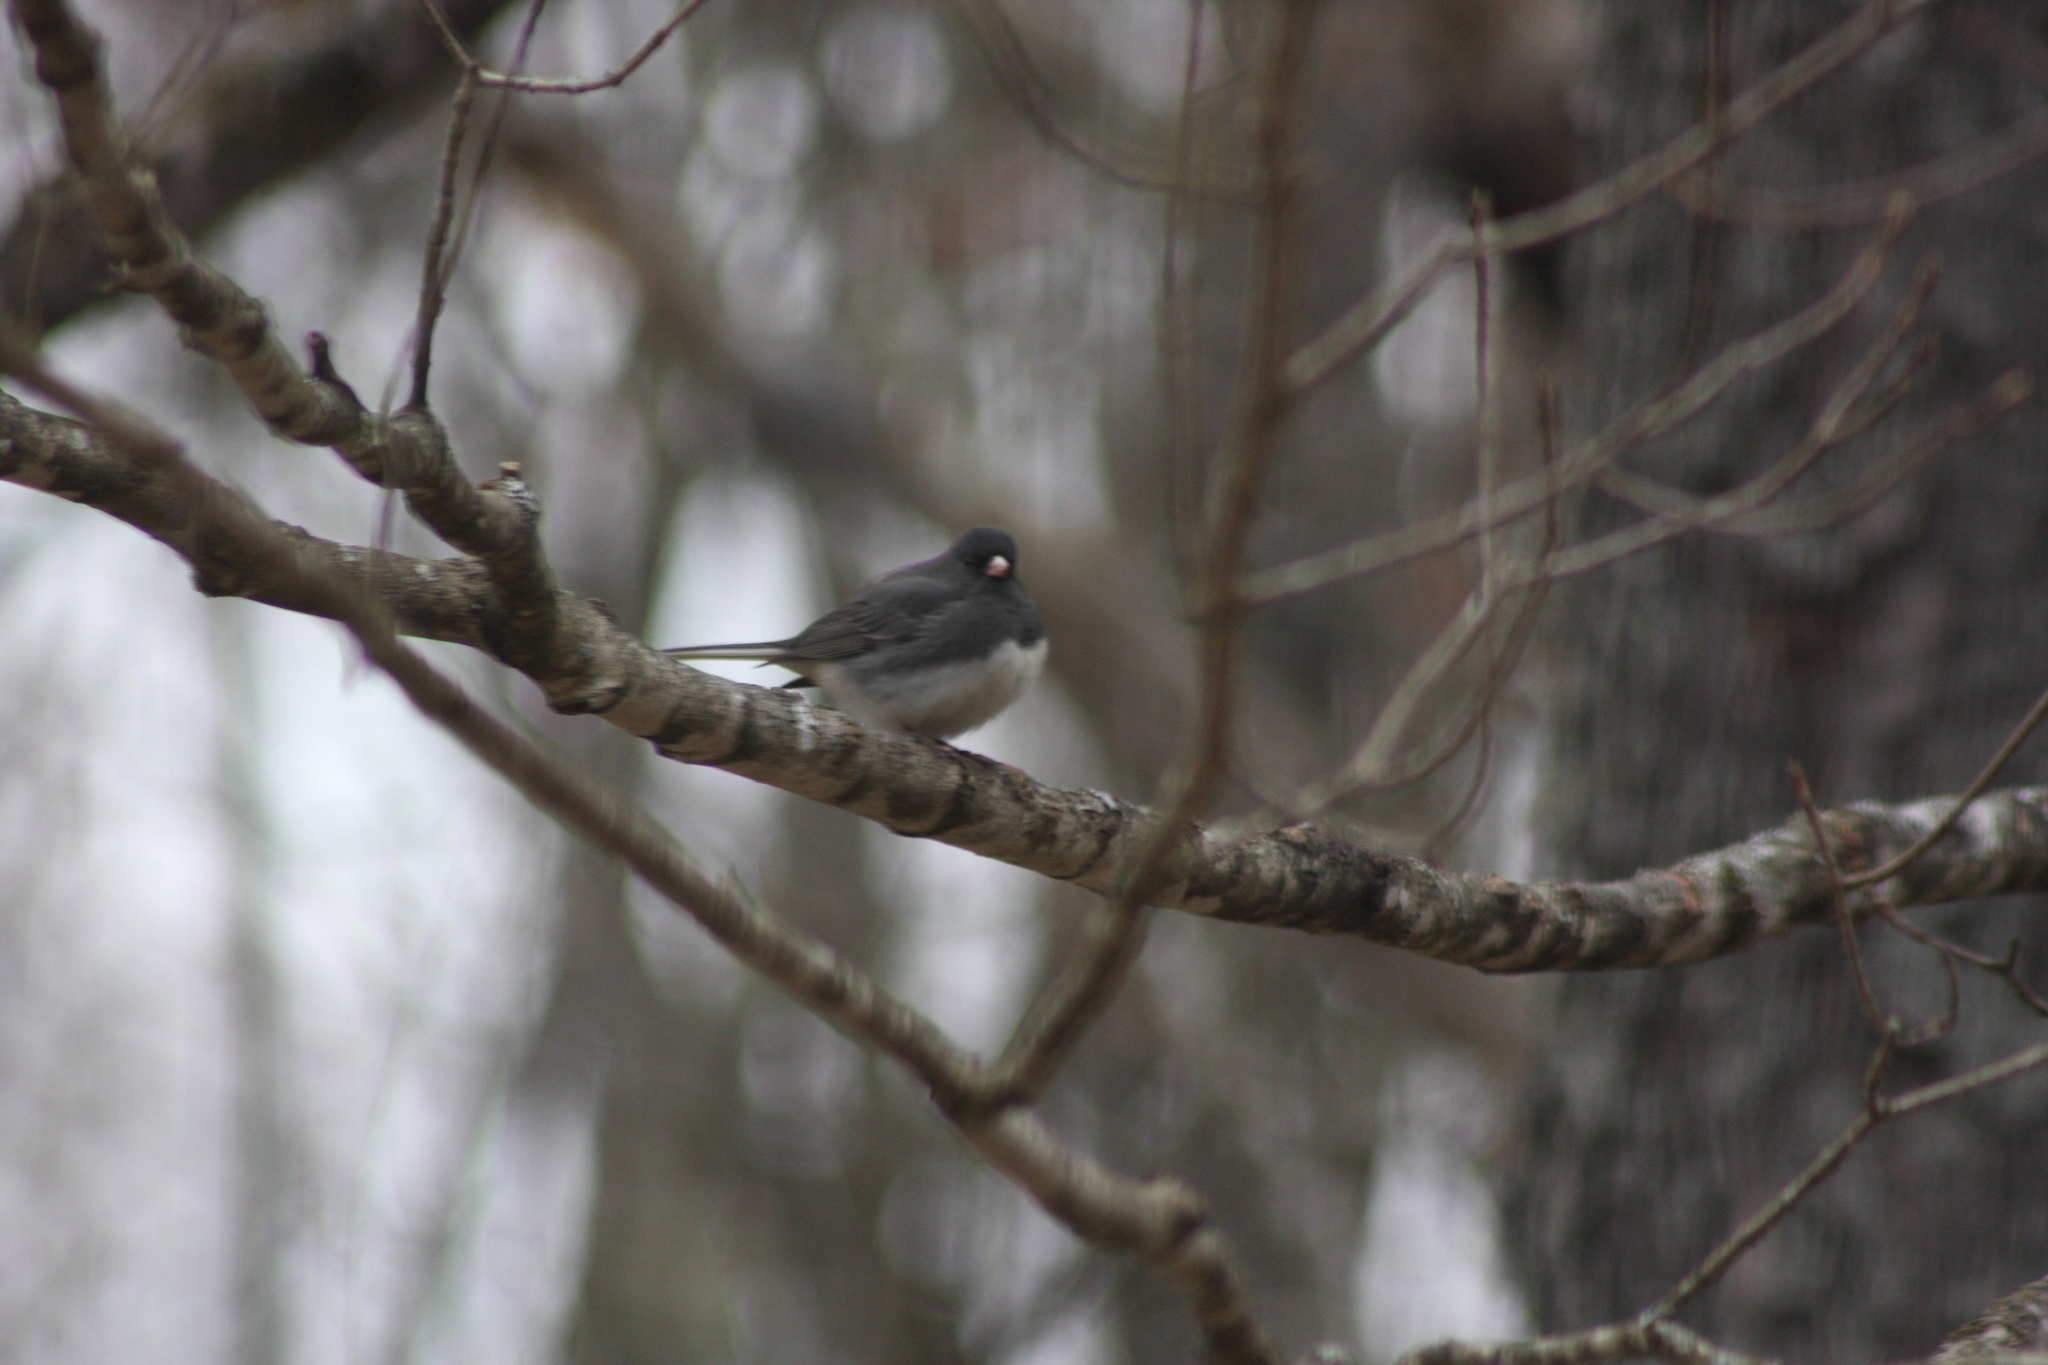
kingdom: Animalia
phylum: Chordata
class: Aves
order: Passeriformes
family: Passerellidae
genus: Junco
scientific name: Junco hyemalis
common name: Dark-eyed junco
